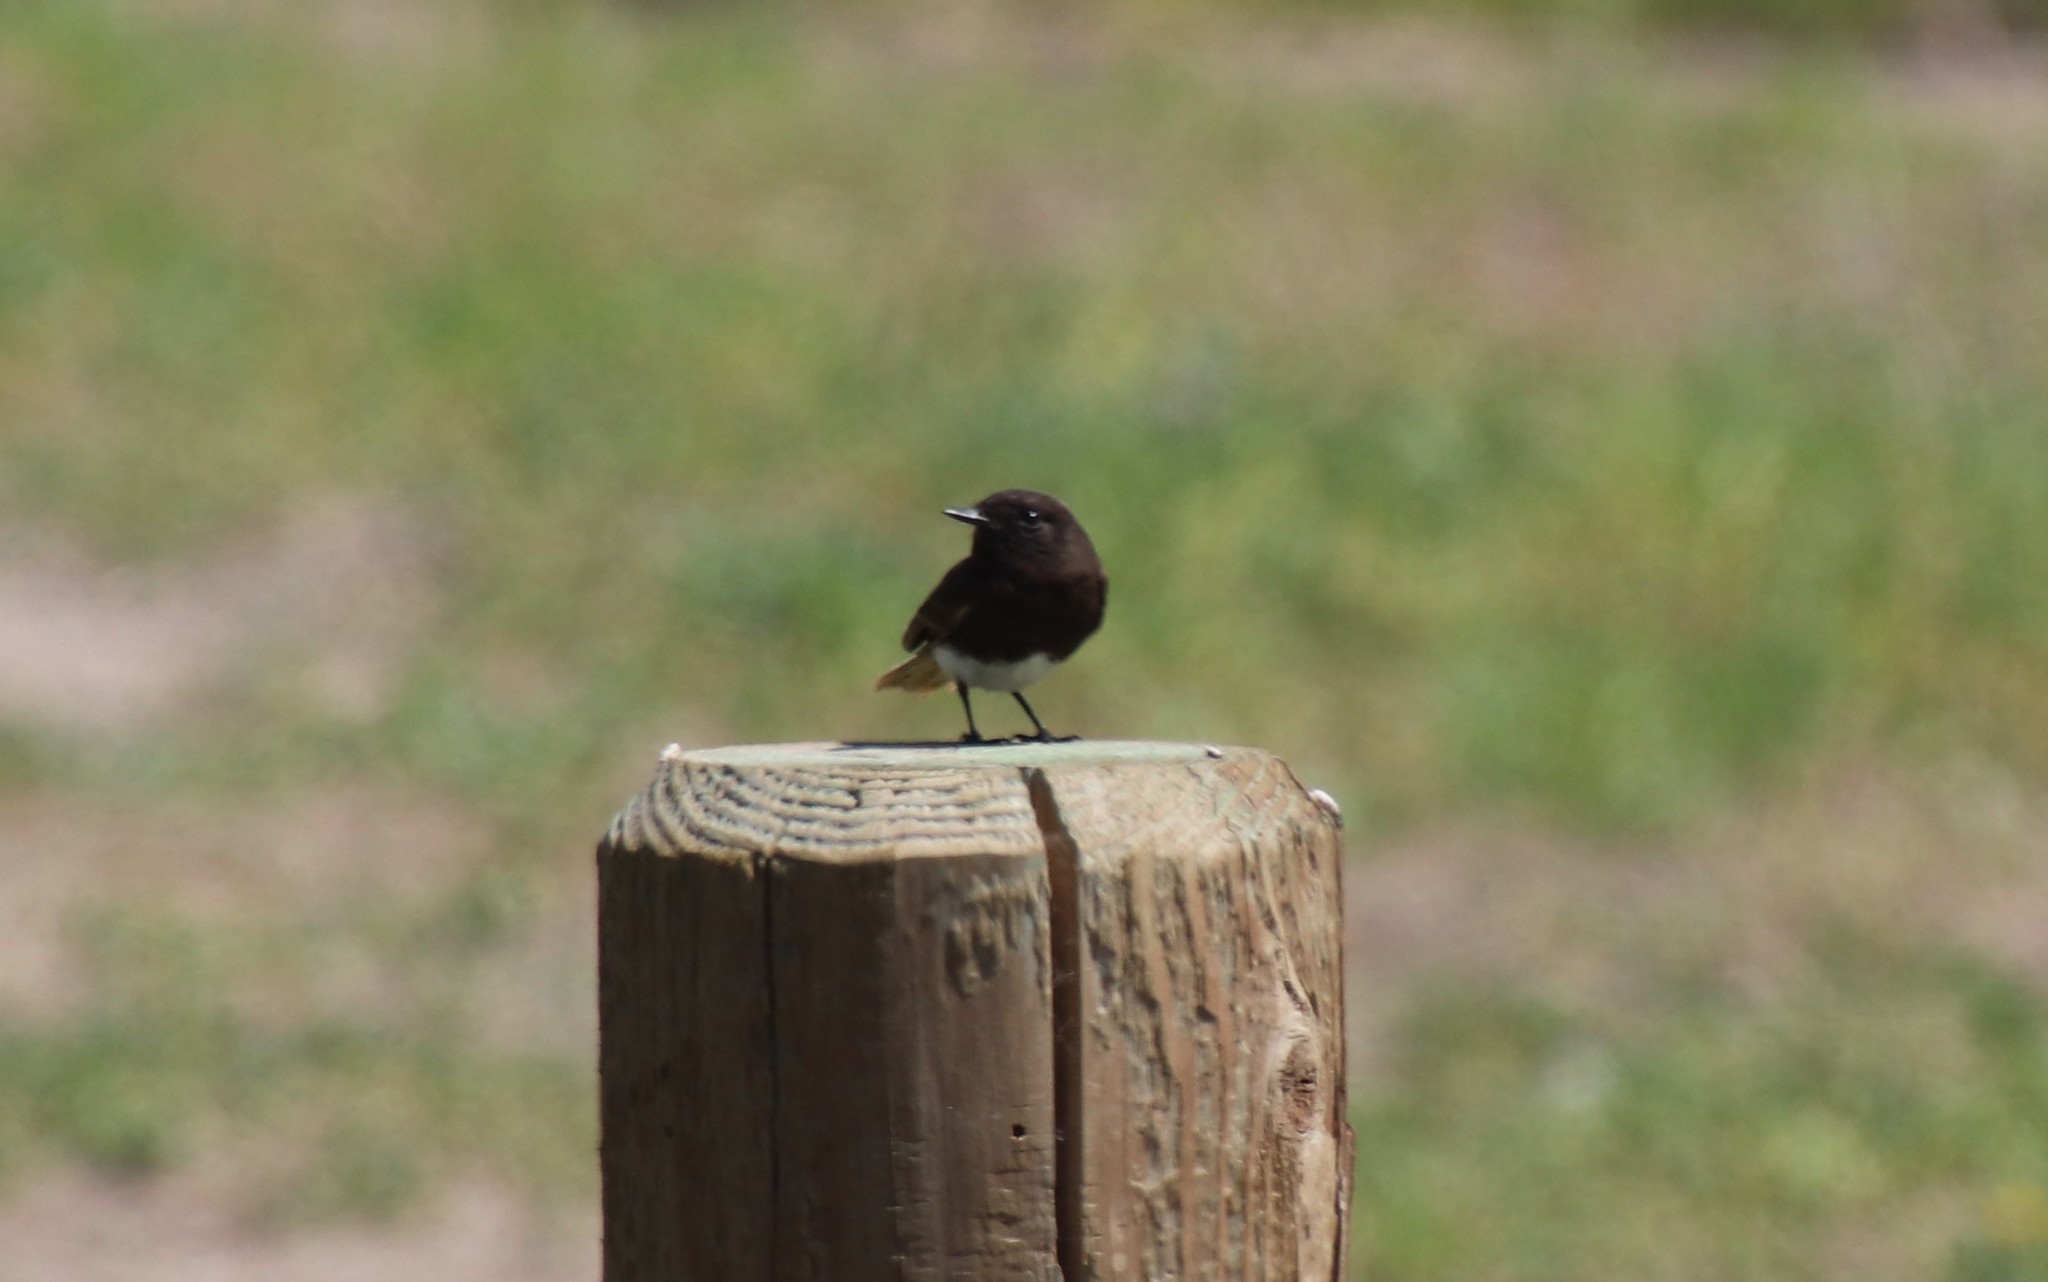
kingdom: Animalia
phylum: Chordata
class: Aves
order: Passeriformes
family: Tyrannidae
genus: Sayornis
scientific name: Sayornis nigricans
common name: Black phoebe
